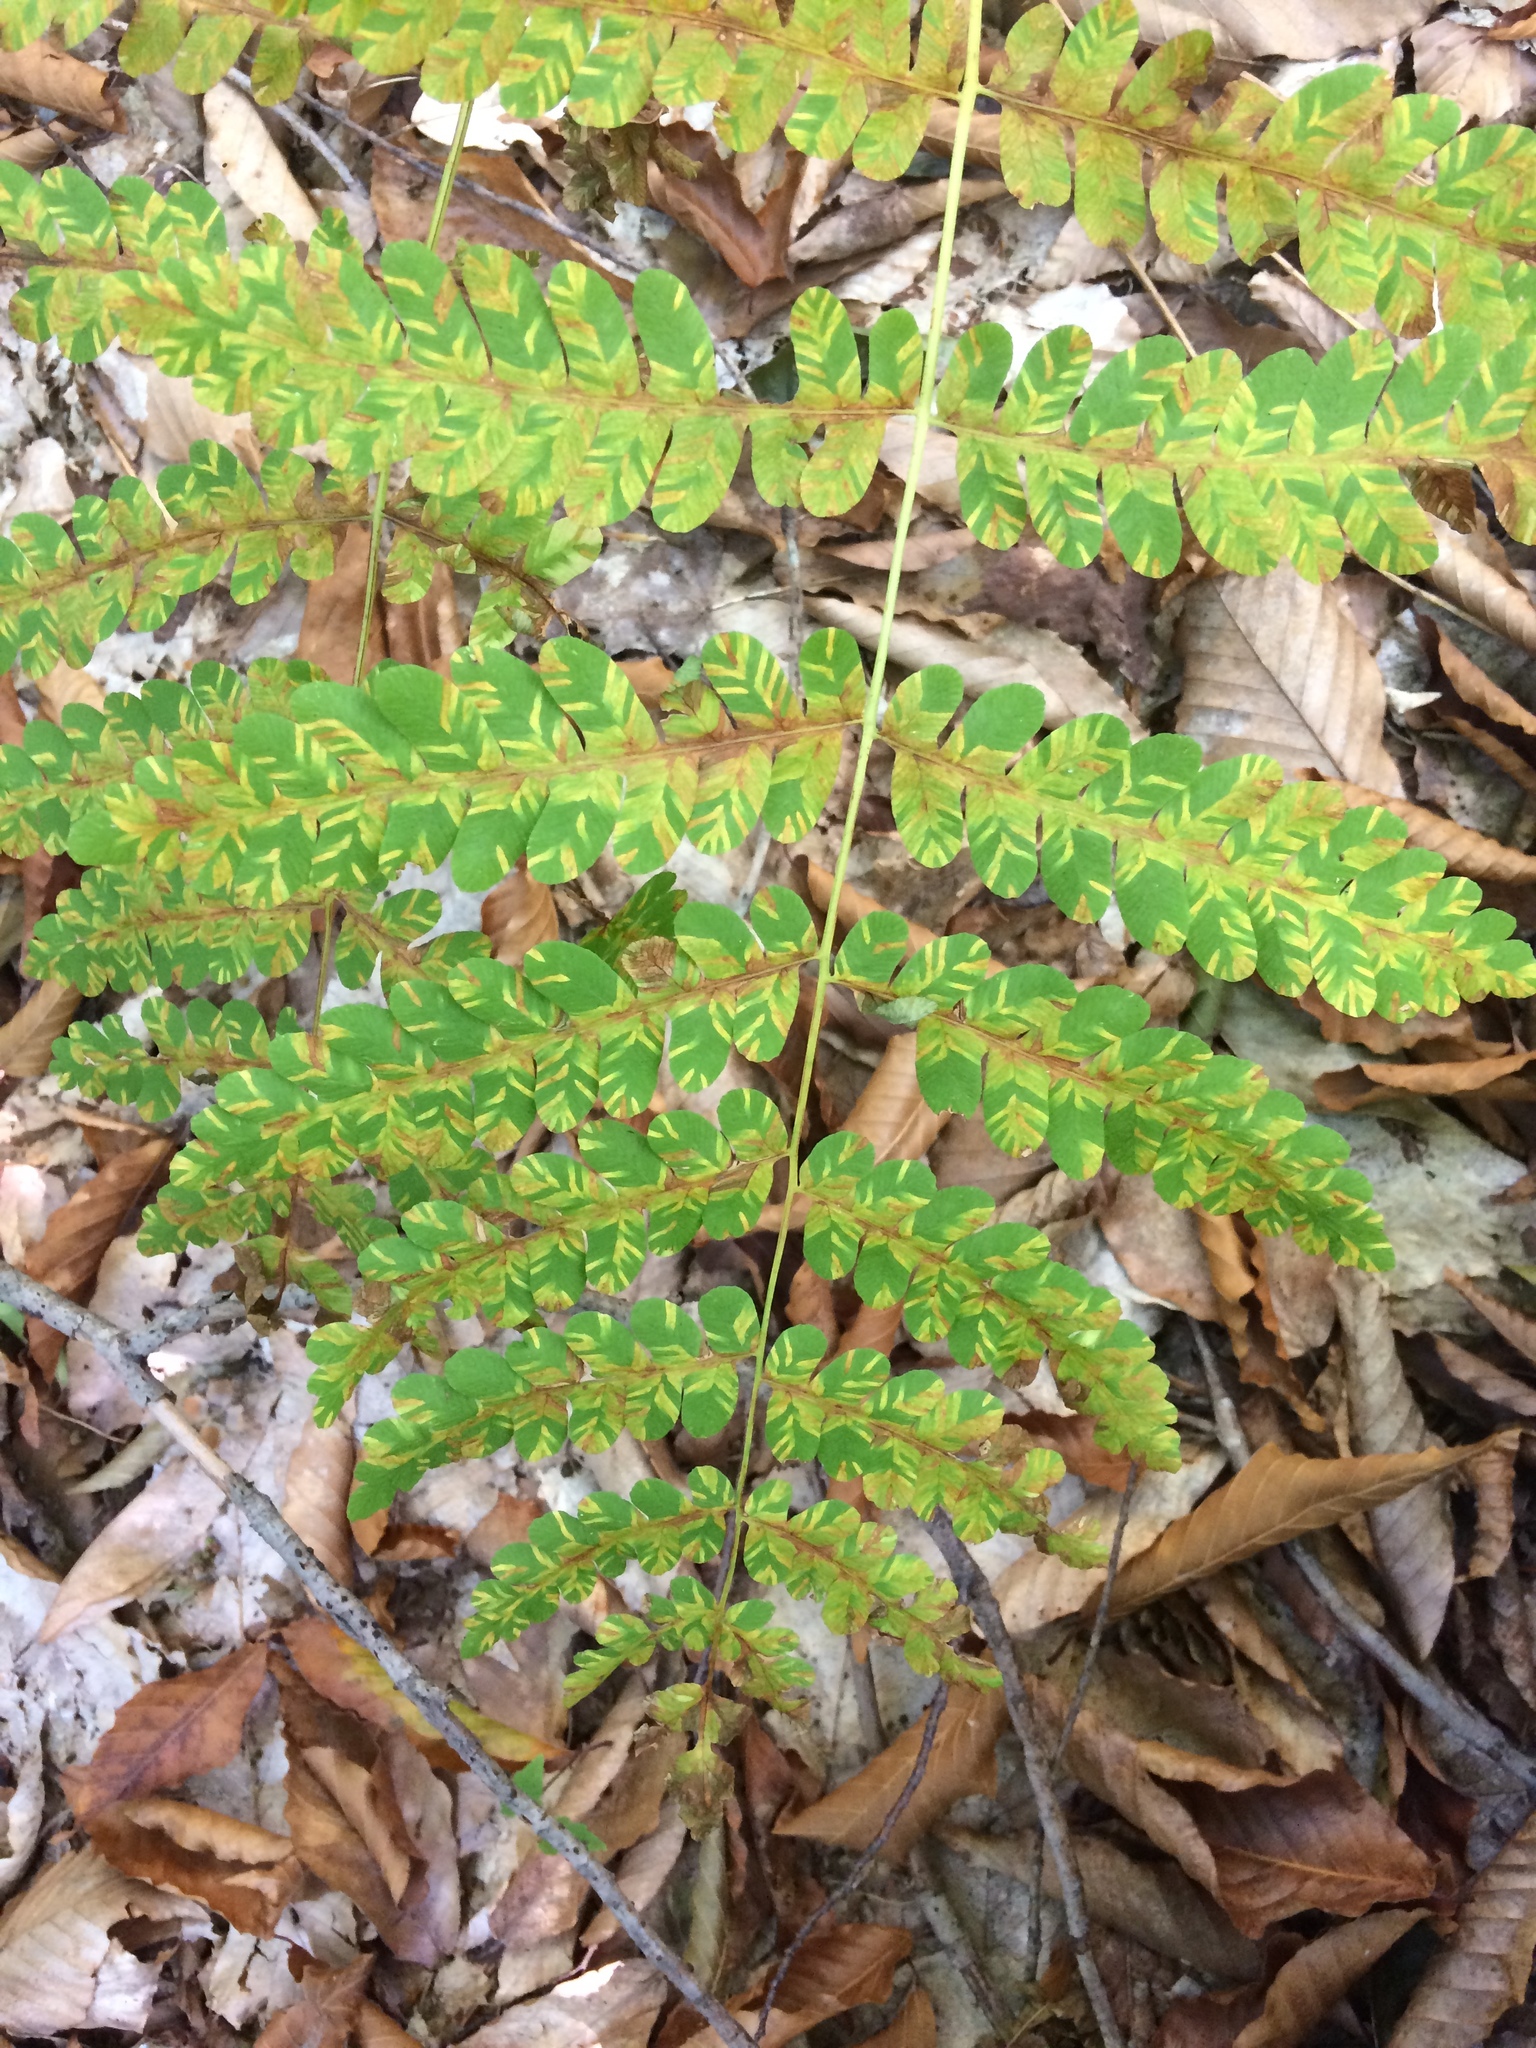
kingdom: Plantae
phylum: Tracheophyta
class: Polypodiopsida
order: Osmundales
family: Osmundaceae
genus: Claytosmunda
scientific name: Claytosmunda claytoniana
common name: Clayton's fern
